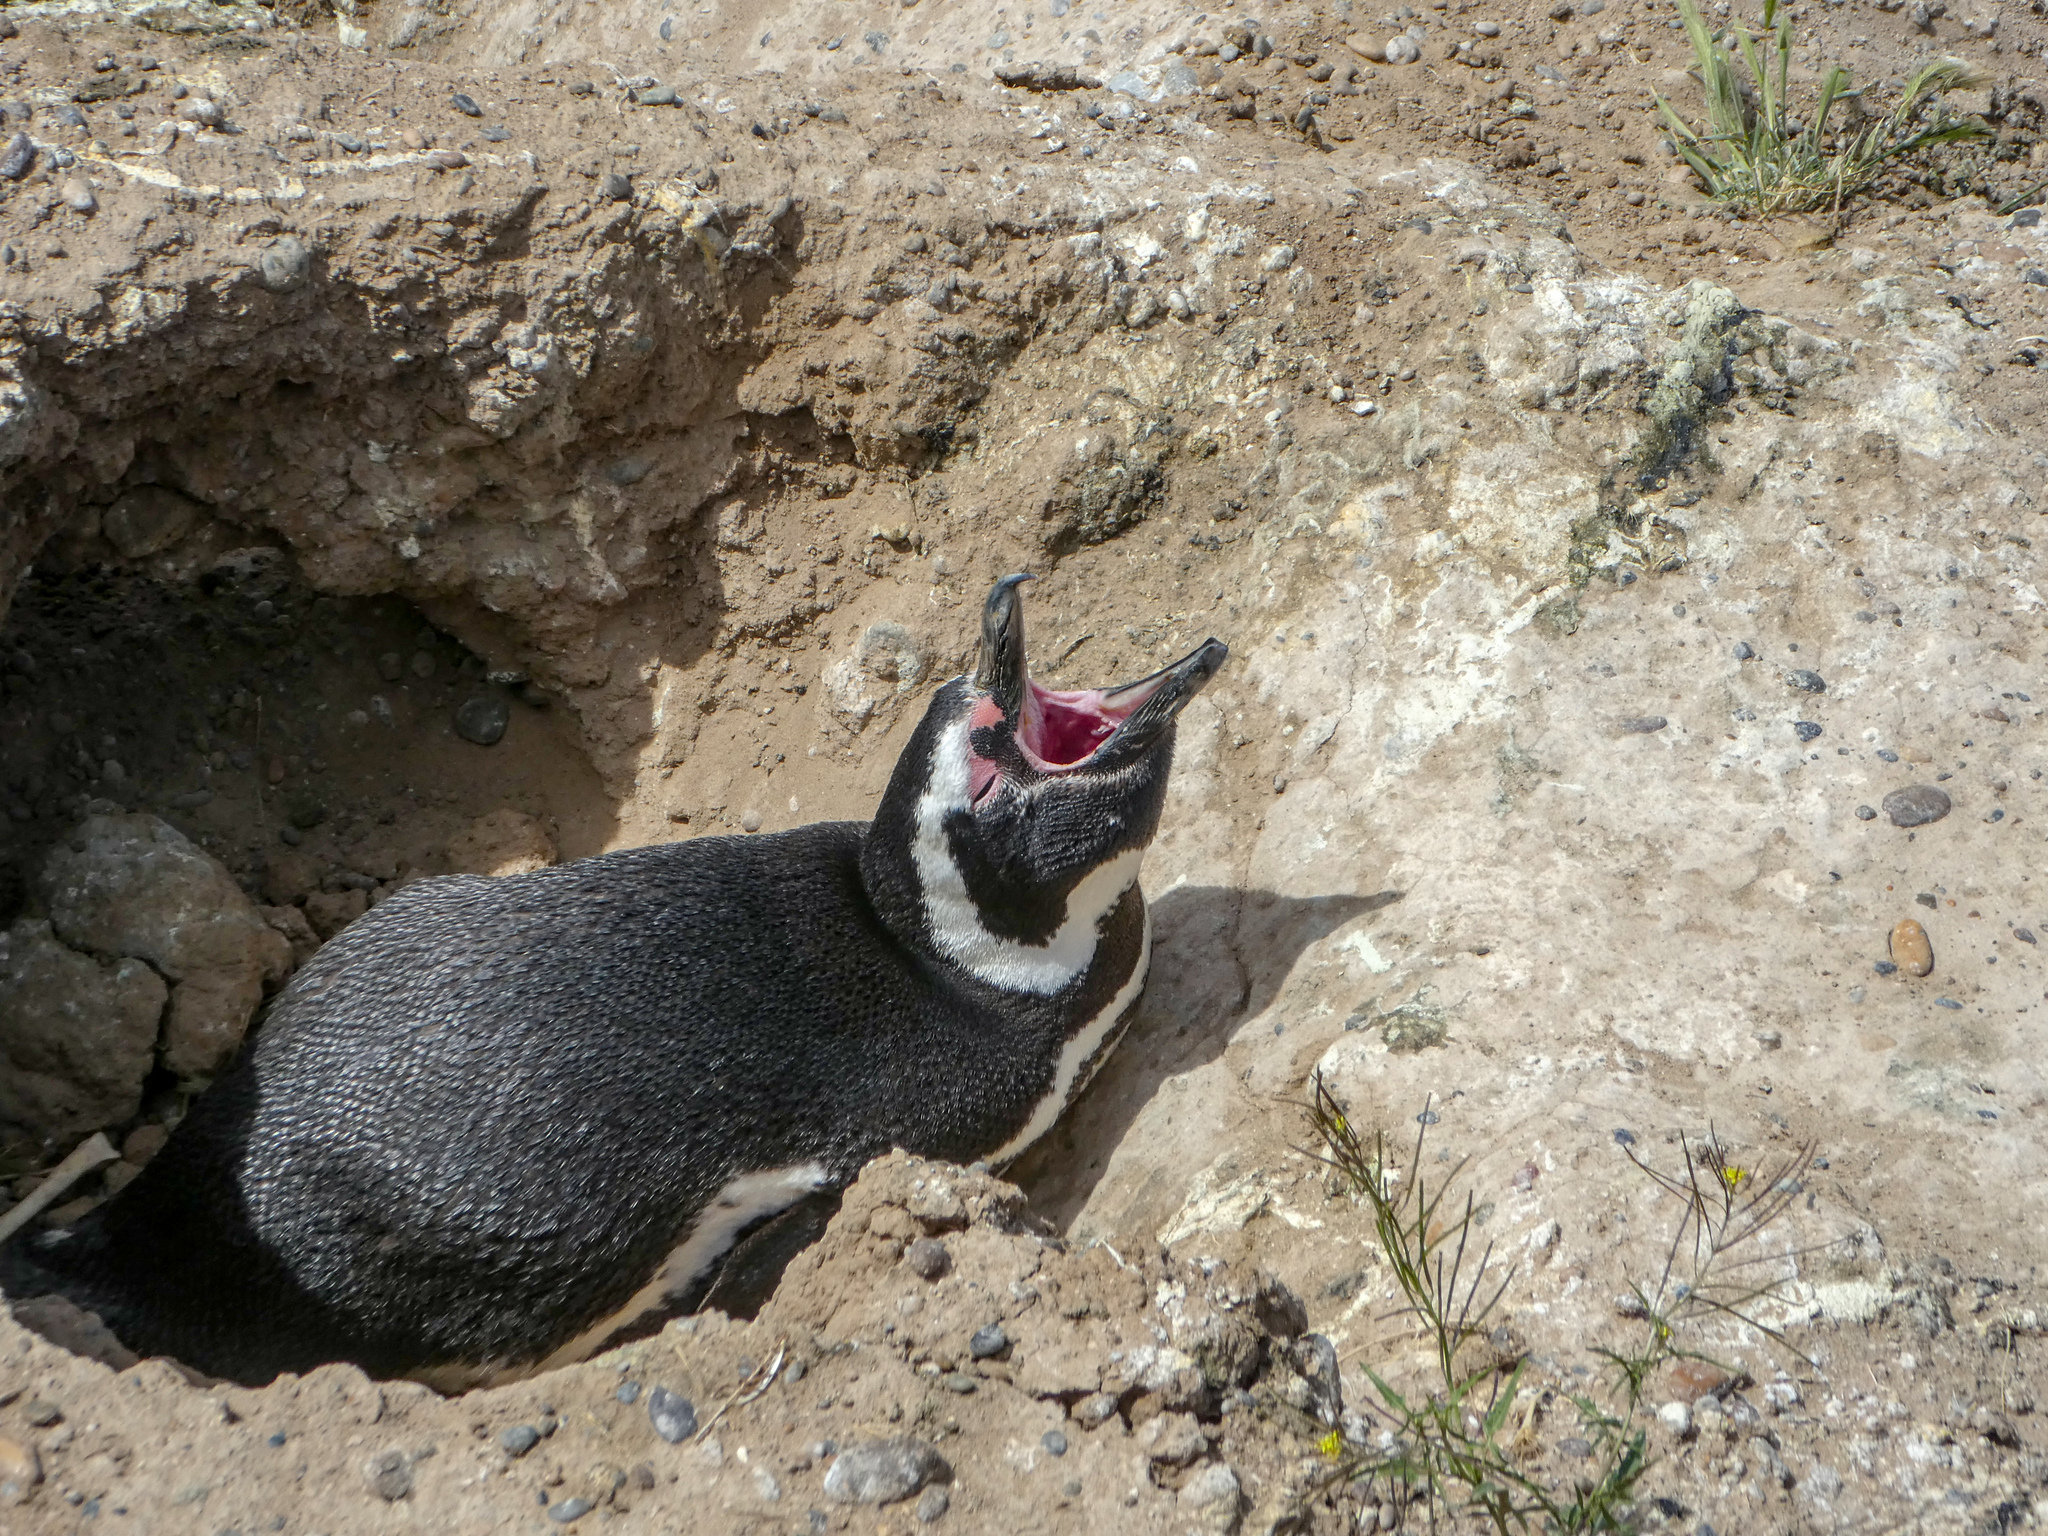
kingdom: Animalia
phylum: Chordata
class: Aves
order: Sphenisciformes
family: Spheniscidae
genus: Spheniscus
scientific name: Spheniscus magellanicus
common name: Magellanic penguin
